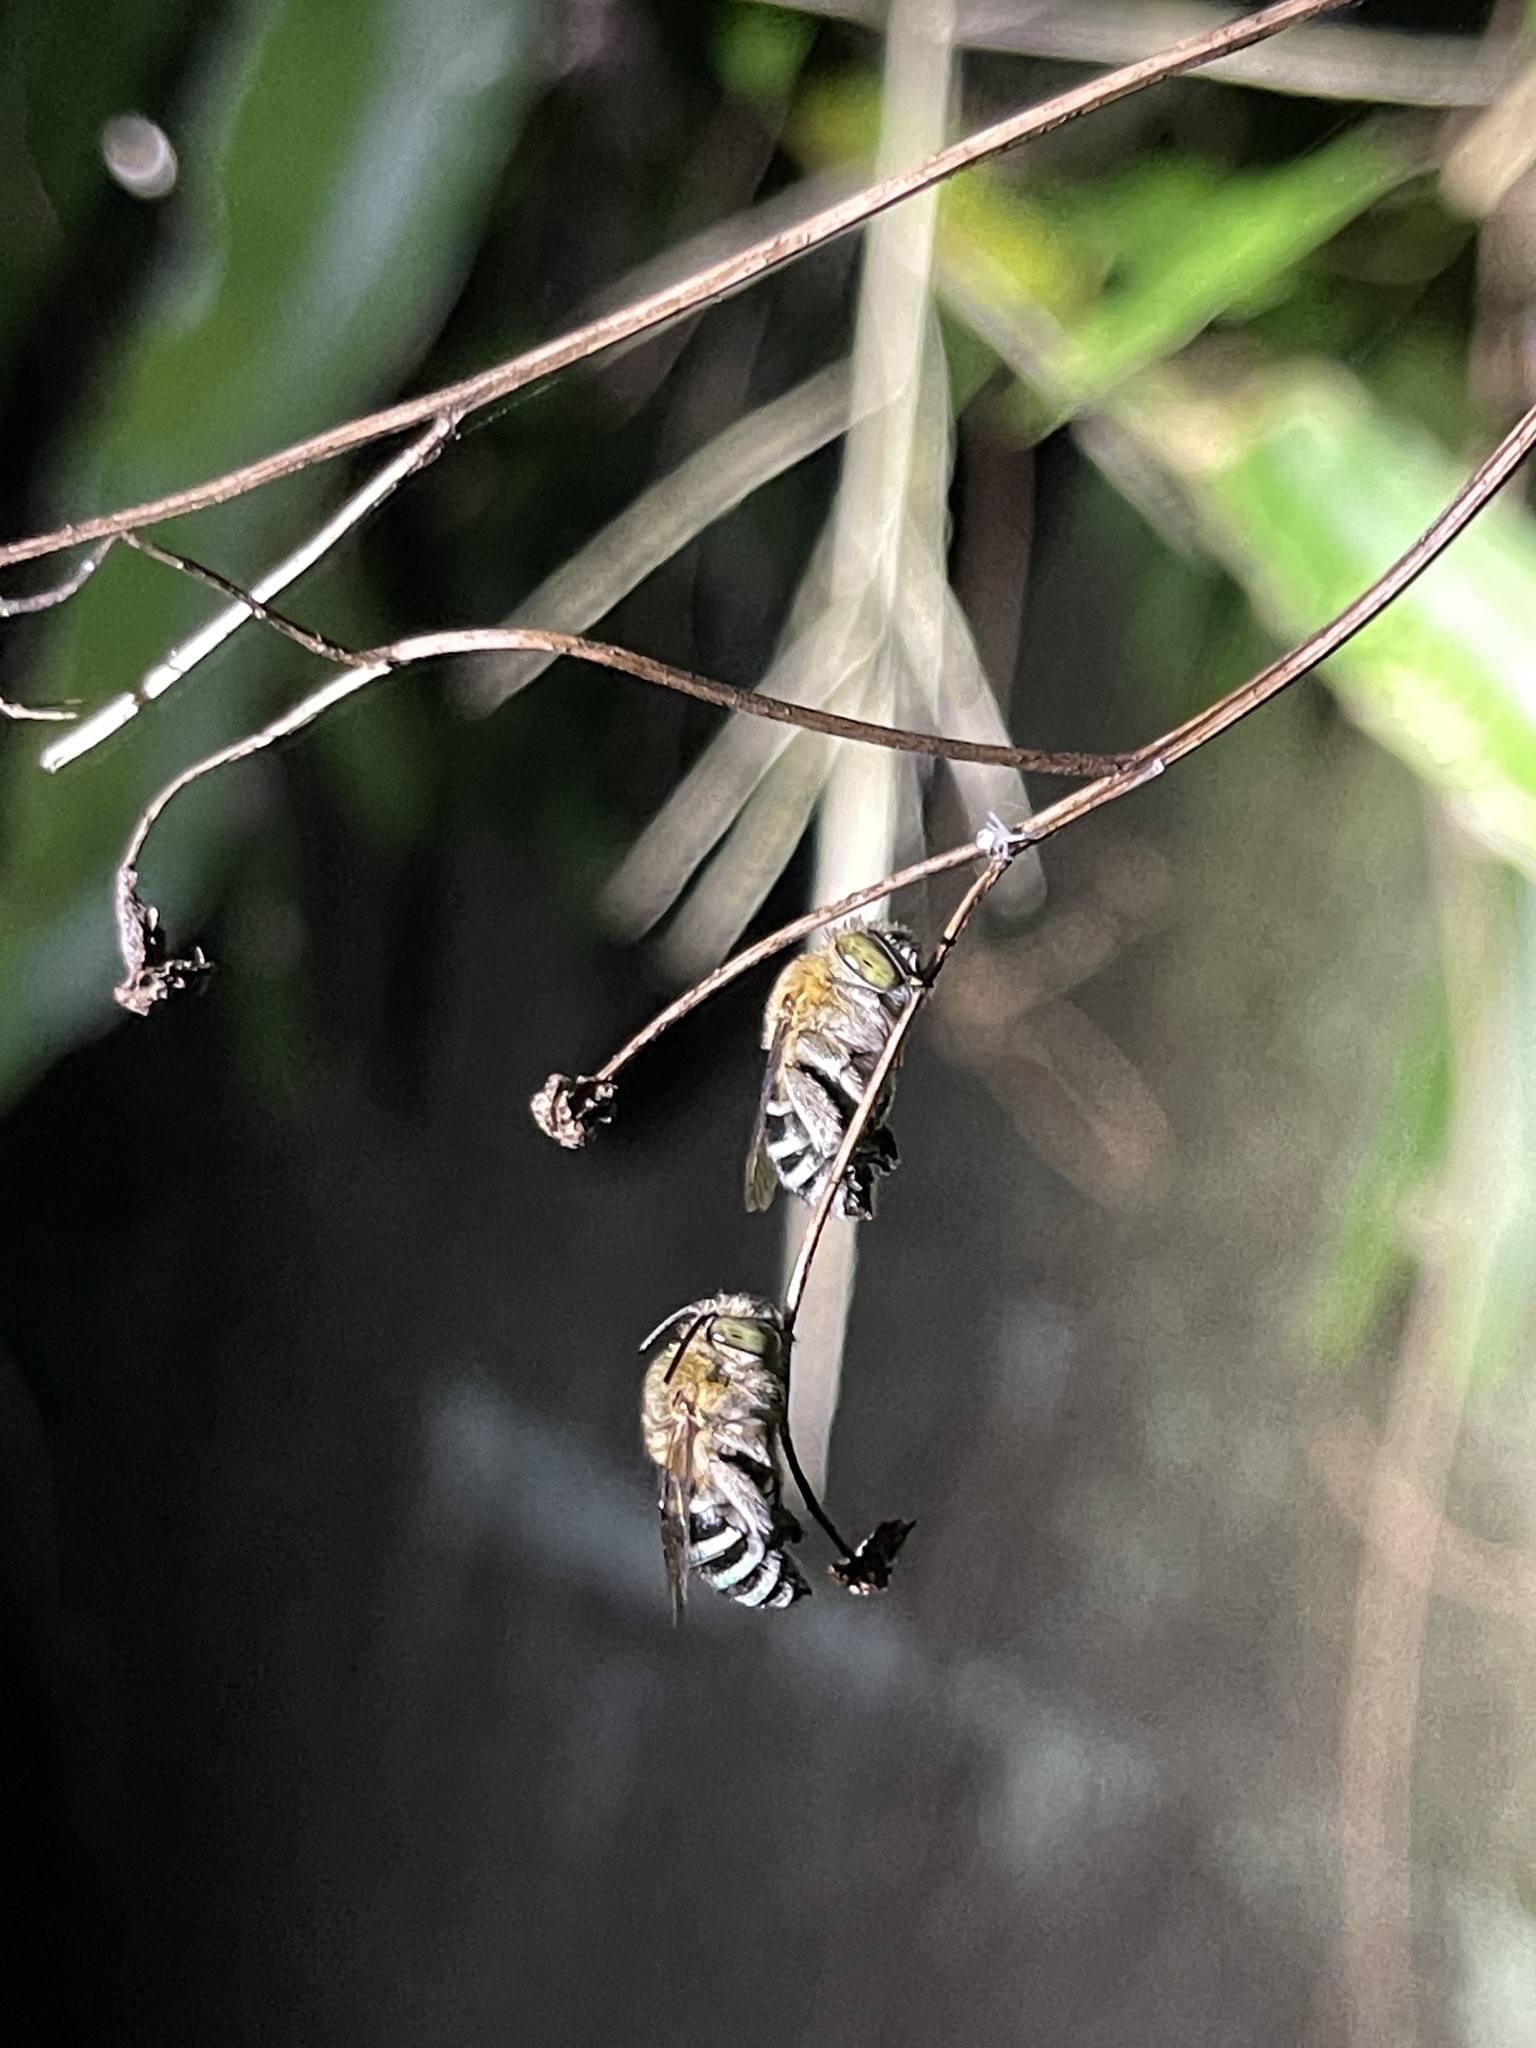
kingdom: Animalia
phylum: Arthropoda
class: Insecta
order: Hymenoptera
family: Apidae
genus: Amegilla
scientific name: Amegilla calceifera
